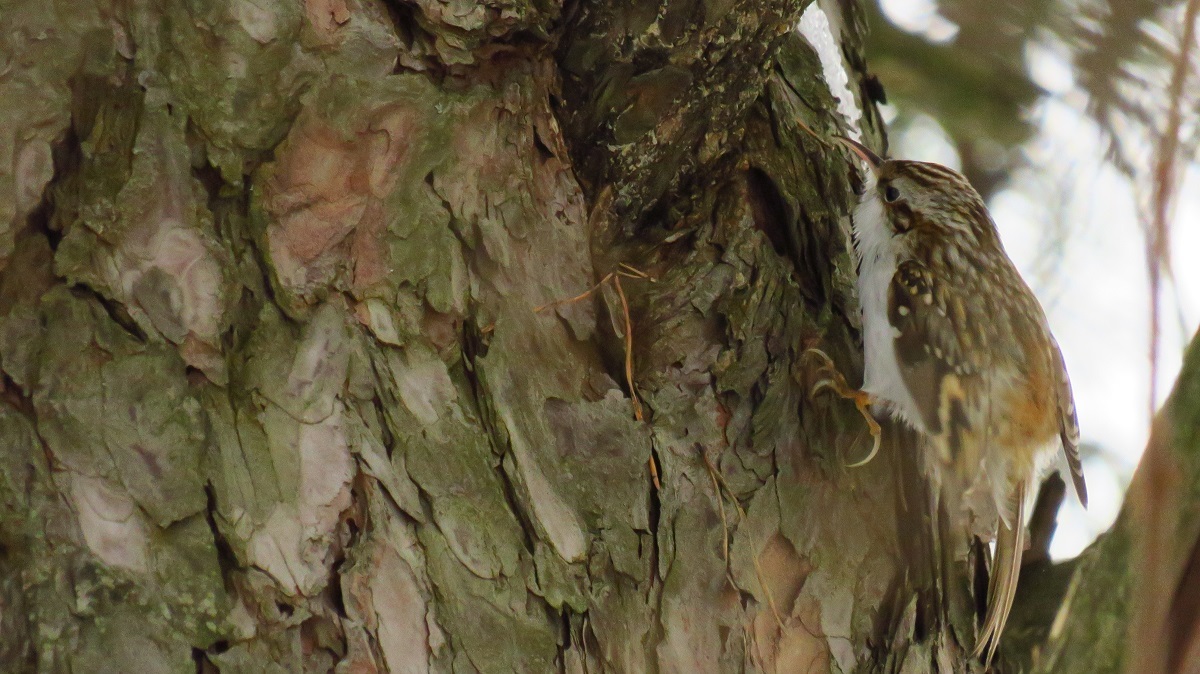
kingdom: Animalia
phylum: Chordata
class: Aves
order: Passeriformes
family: Certhiidae
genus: Certhia
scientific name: Certhia familiaris
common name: Eurasian treecreeper
